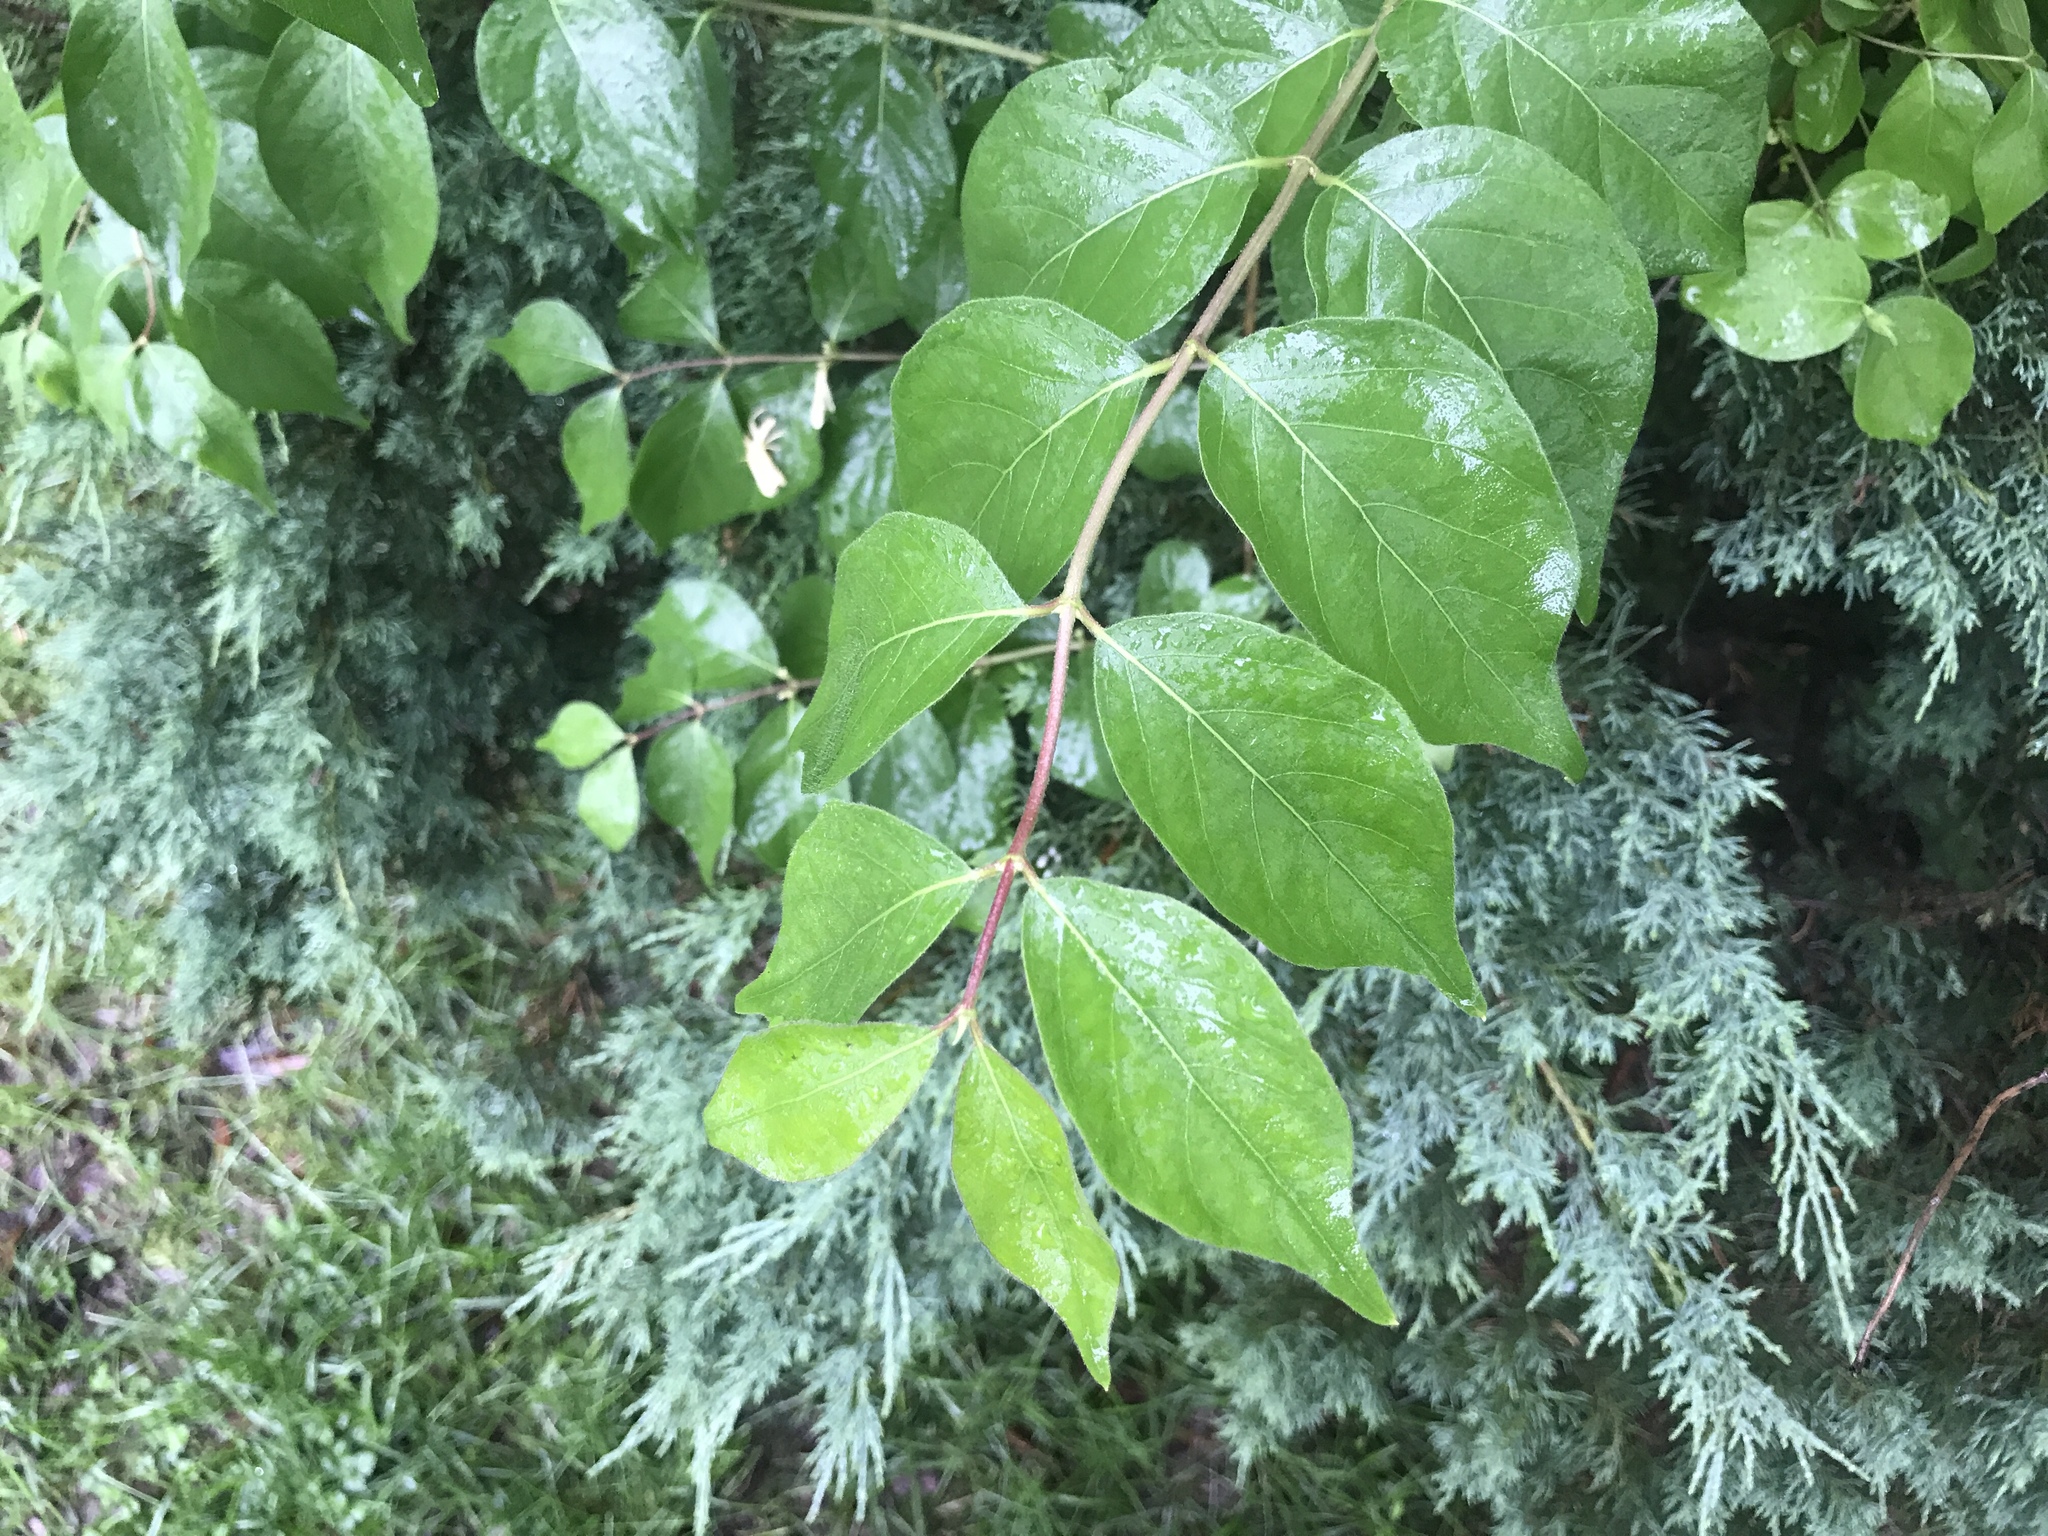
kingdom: Plantae
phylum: Tracheophyta
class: Magnoliopsida
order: Dipsacales
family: Caprifoliaceae
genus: Lonicera
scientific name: Lonicera maackii
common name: Amur honeysuckle
